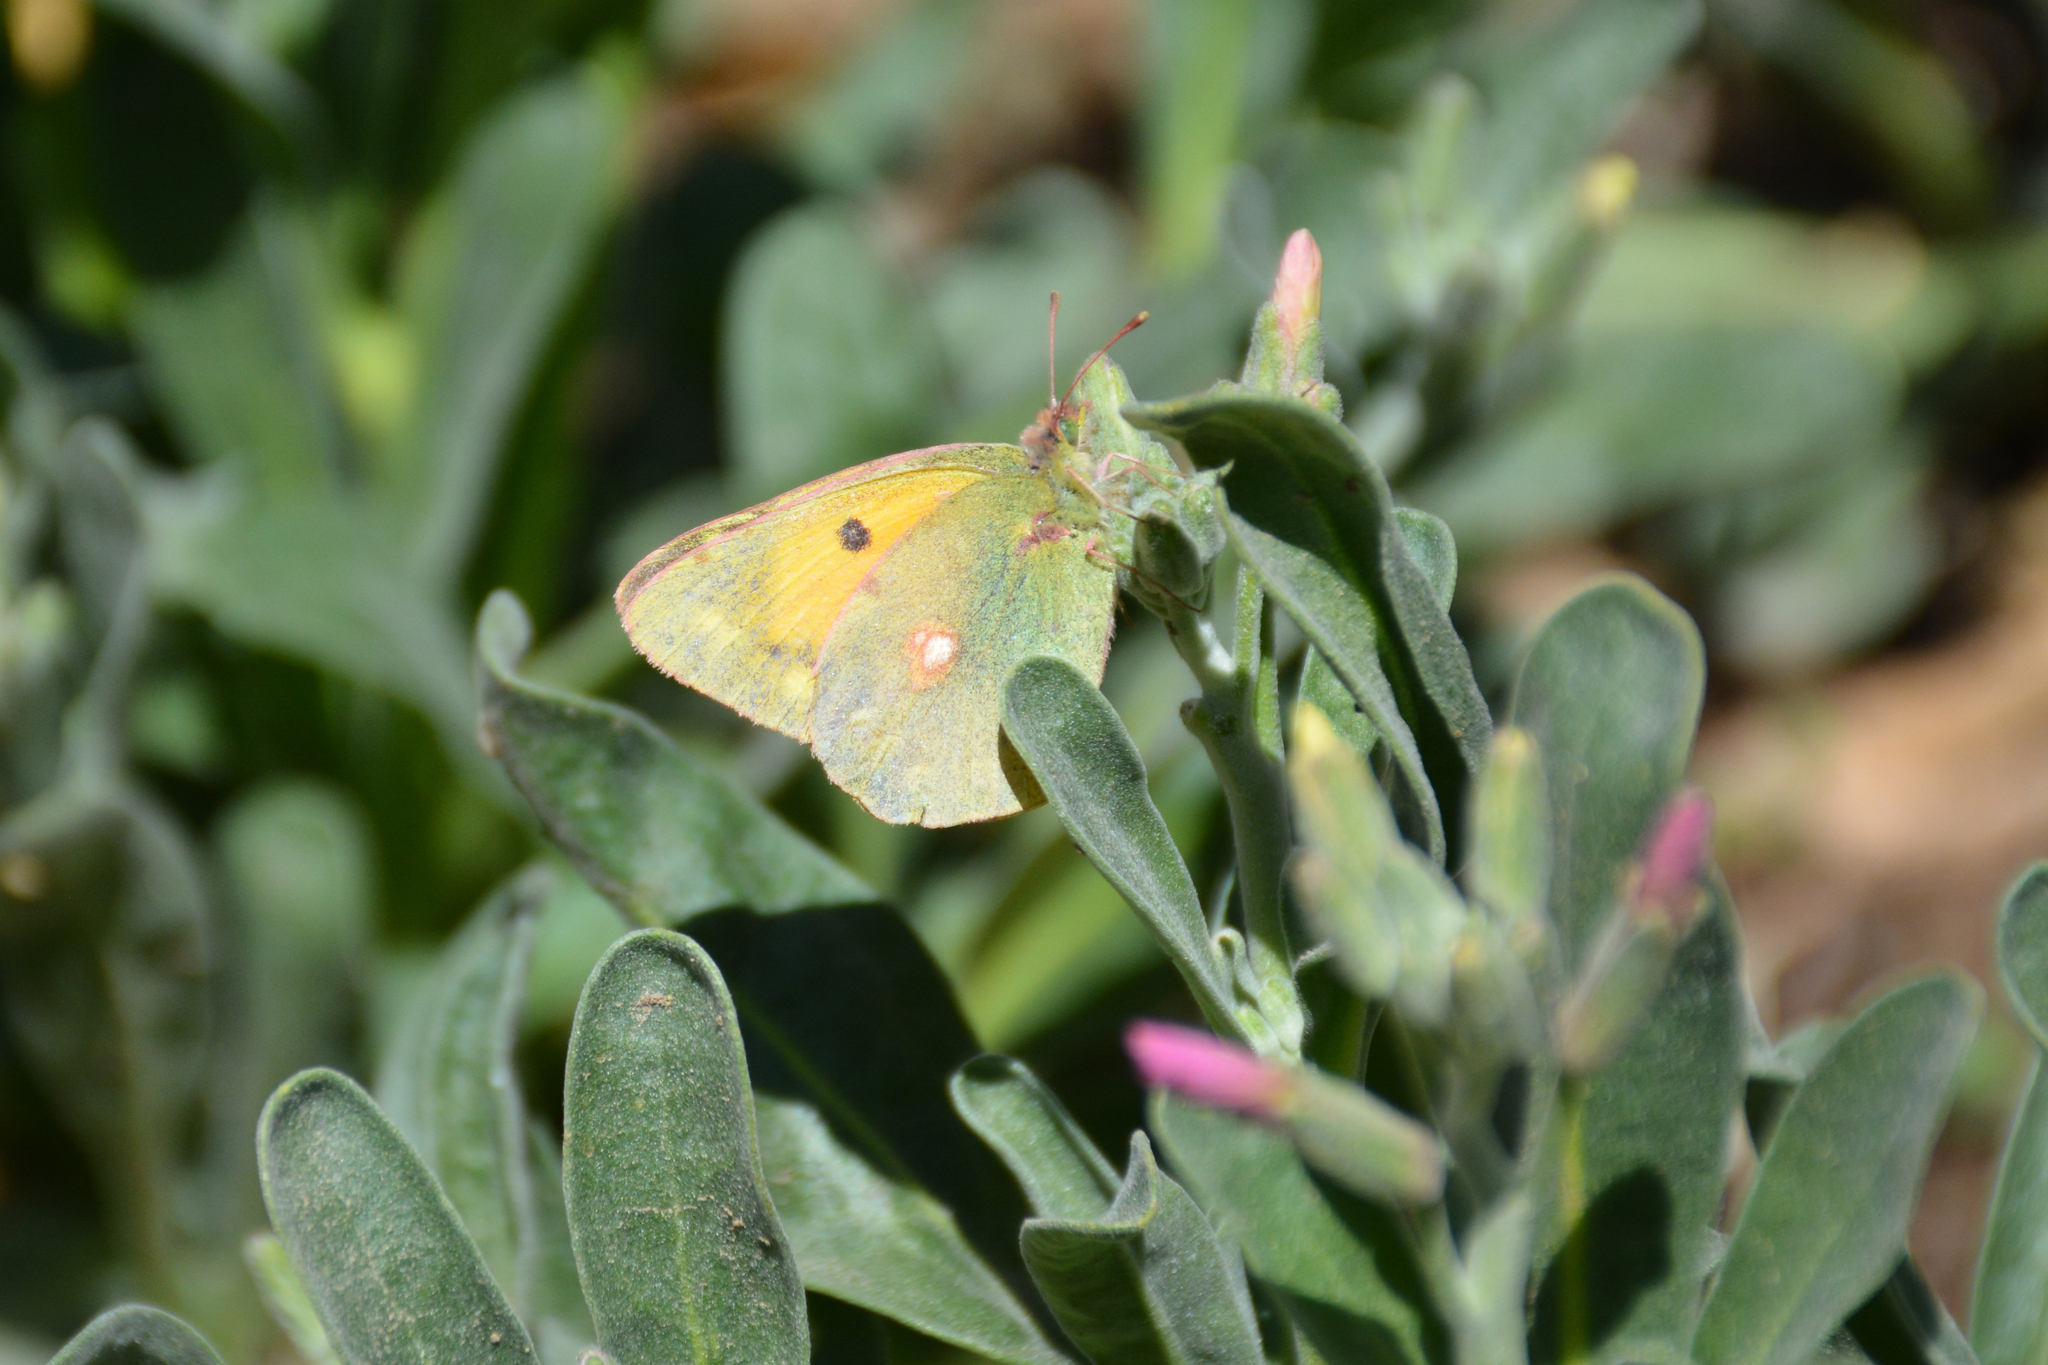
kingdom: Animalia
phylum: Arthropoda
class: Insecta
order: Lepidoptera
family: Pieridae
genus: Colias
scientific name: Colias croceus
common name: Clouded yellow
